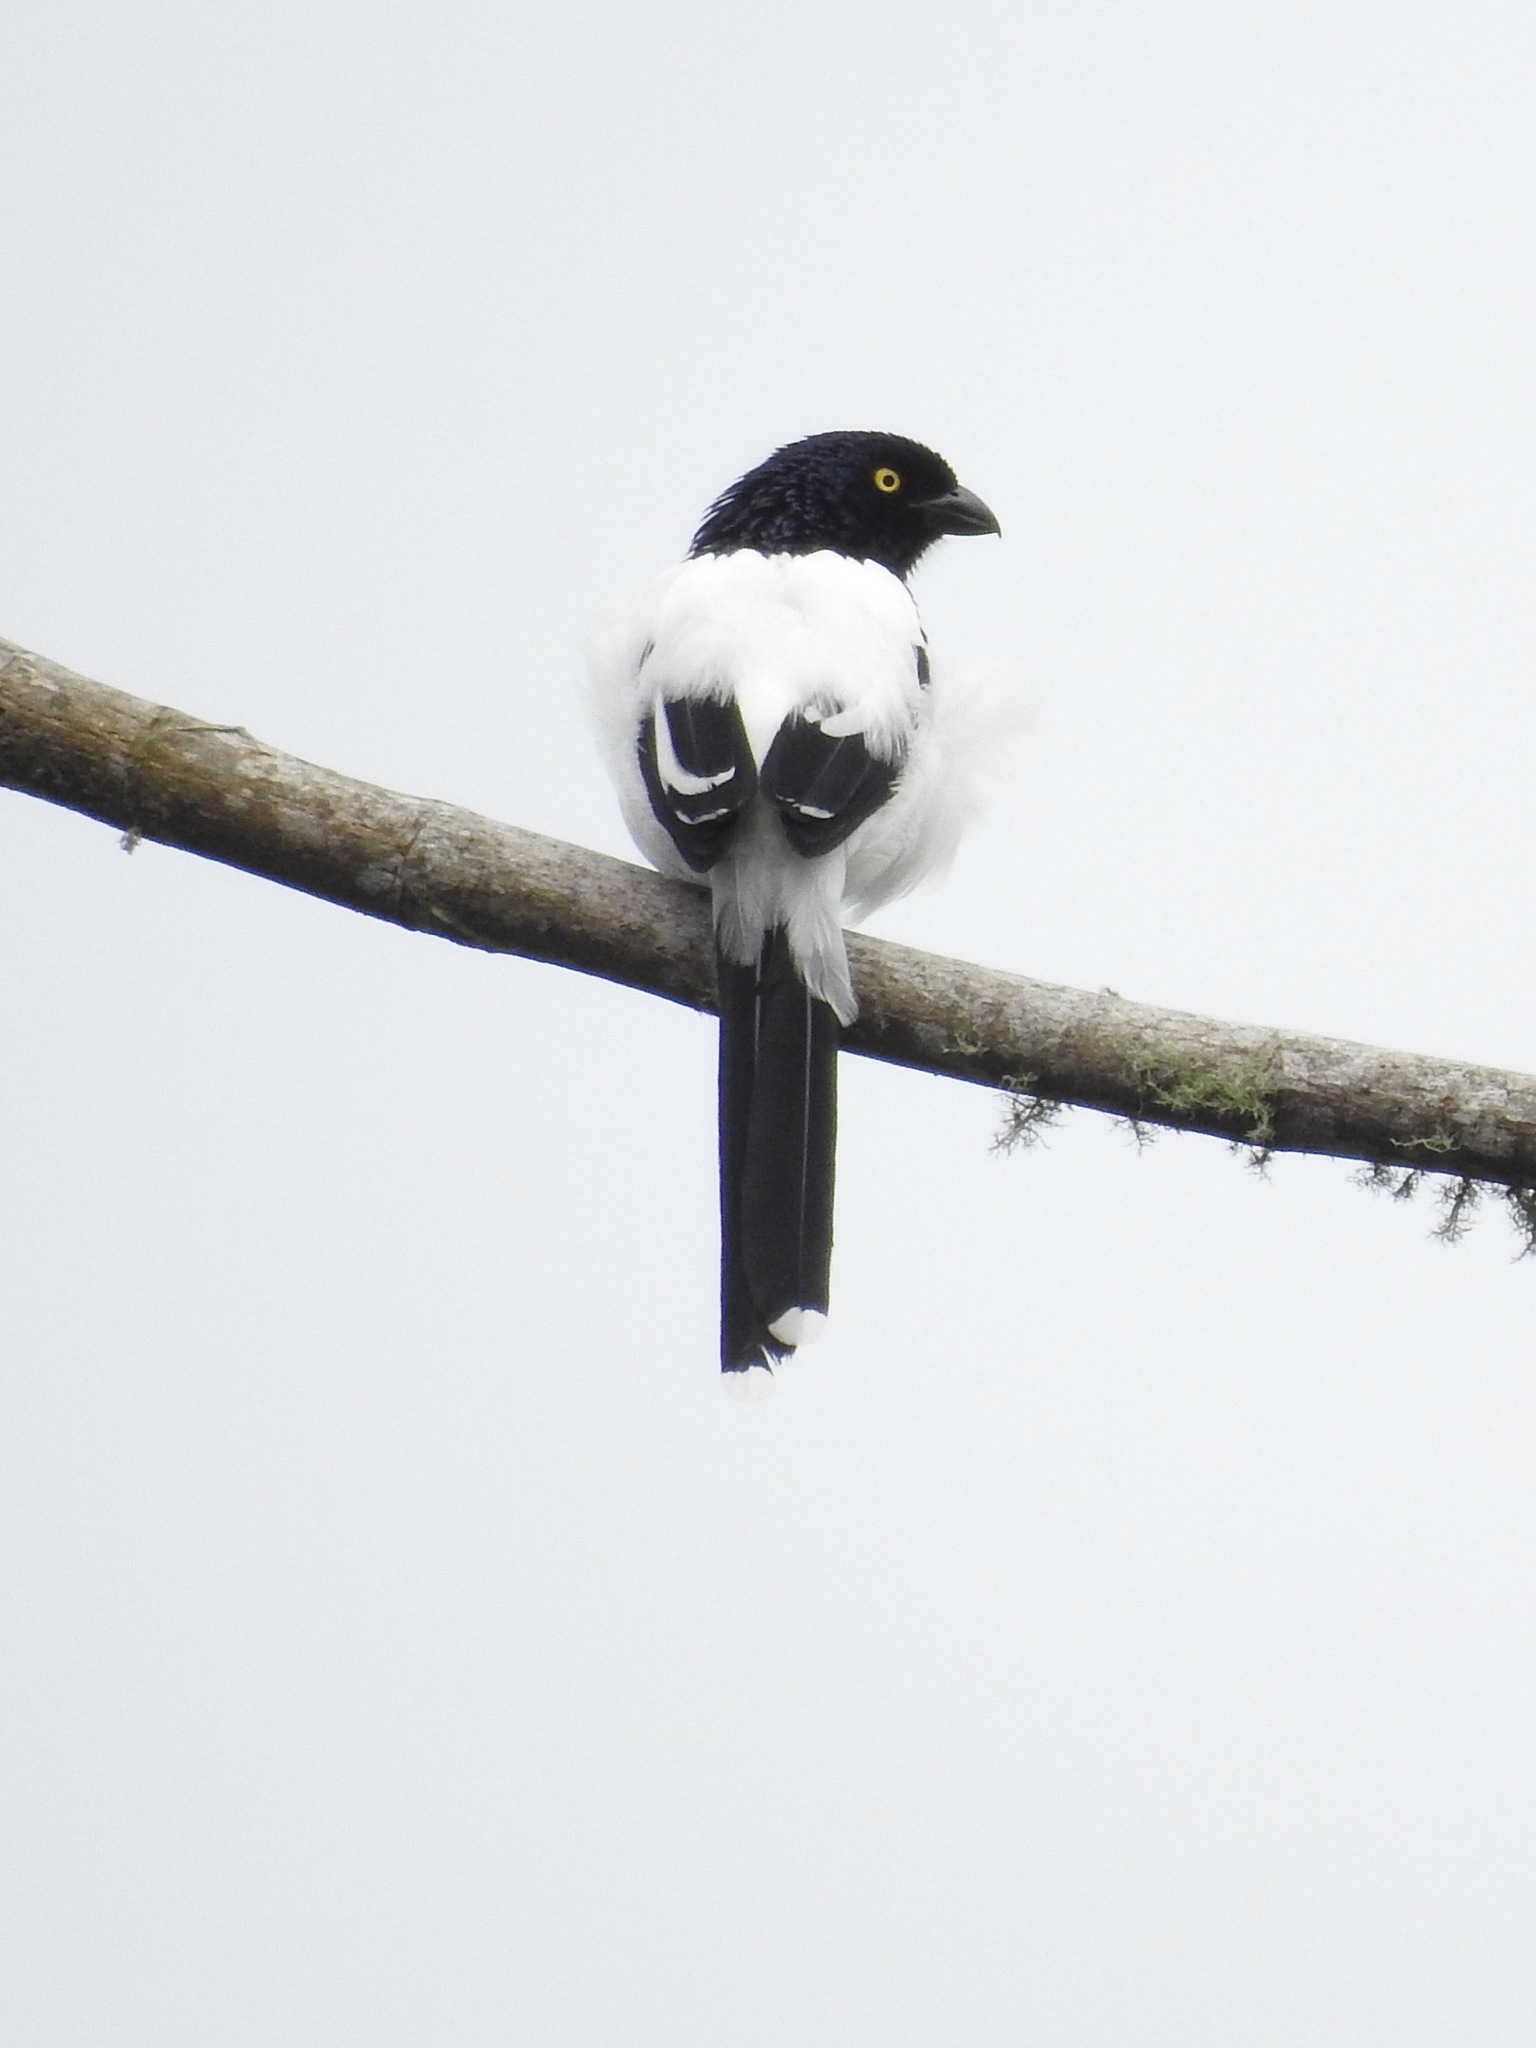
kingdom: Animalia
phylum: Chordata
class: Aves
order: Passeriformes
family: Thraupidae
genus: Cissopis
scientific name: Cissopis leverianus
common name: Magpie tanager
